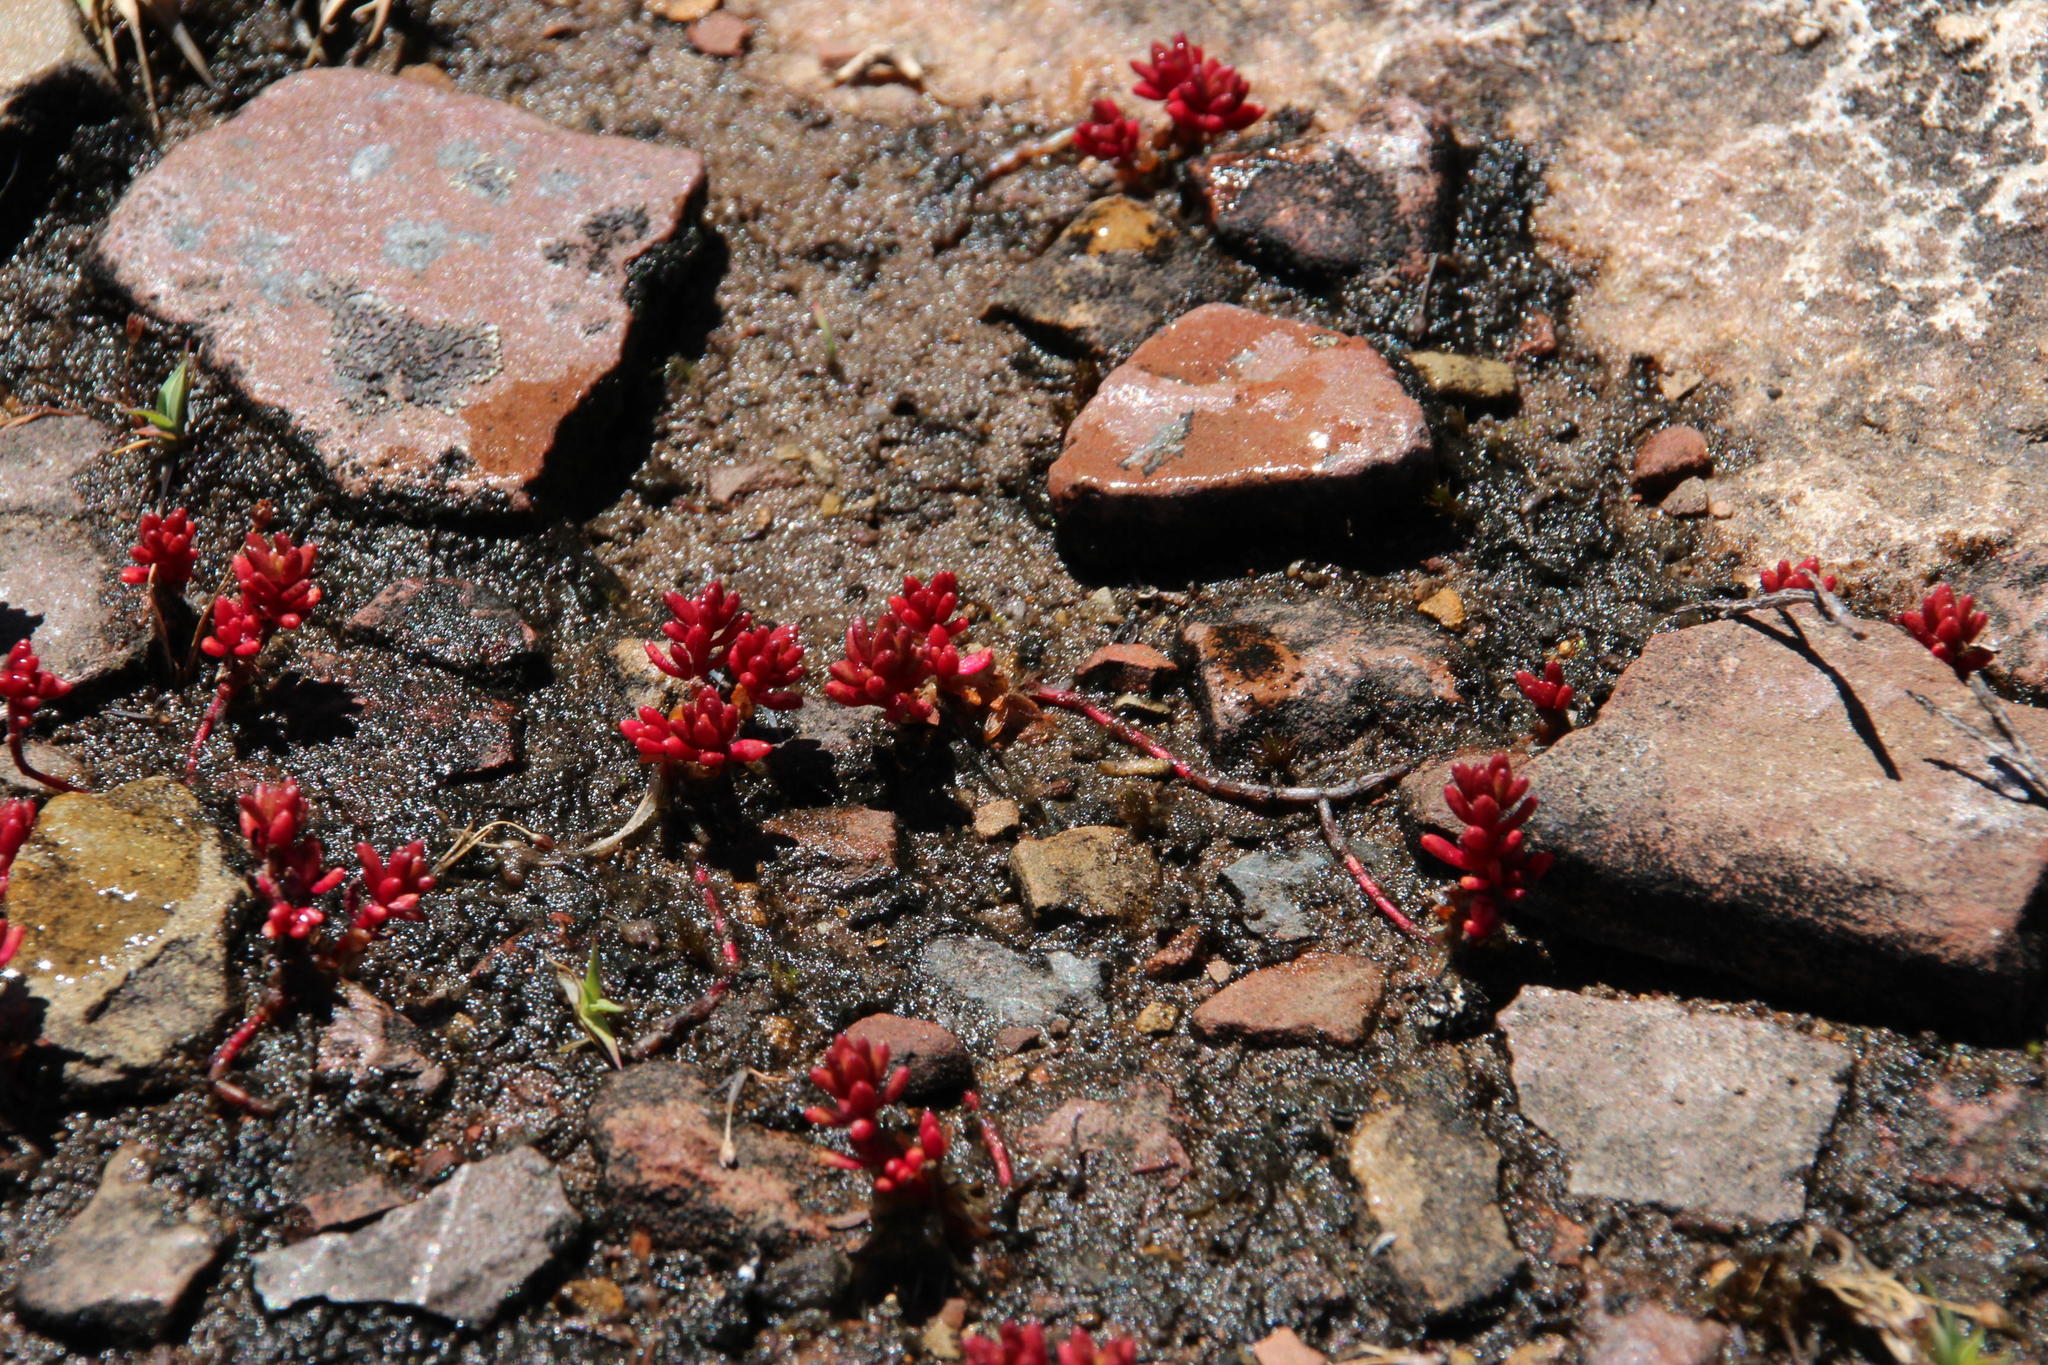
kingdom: Plantae
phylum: Tracheophyta
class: Magnoliopsida
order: Saxifragales
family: Crassulaceae
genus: Crassula
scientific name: Crassula papillosa
